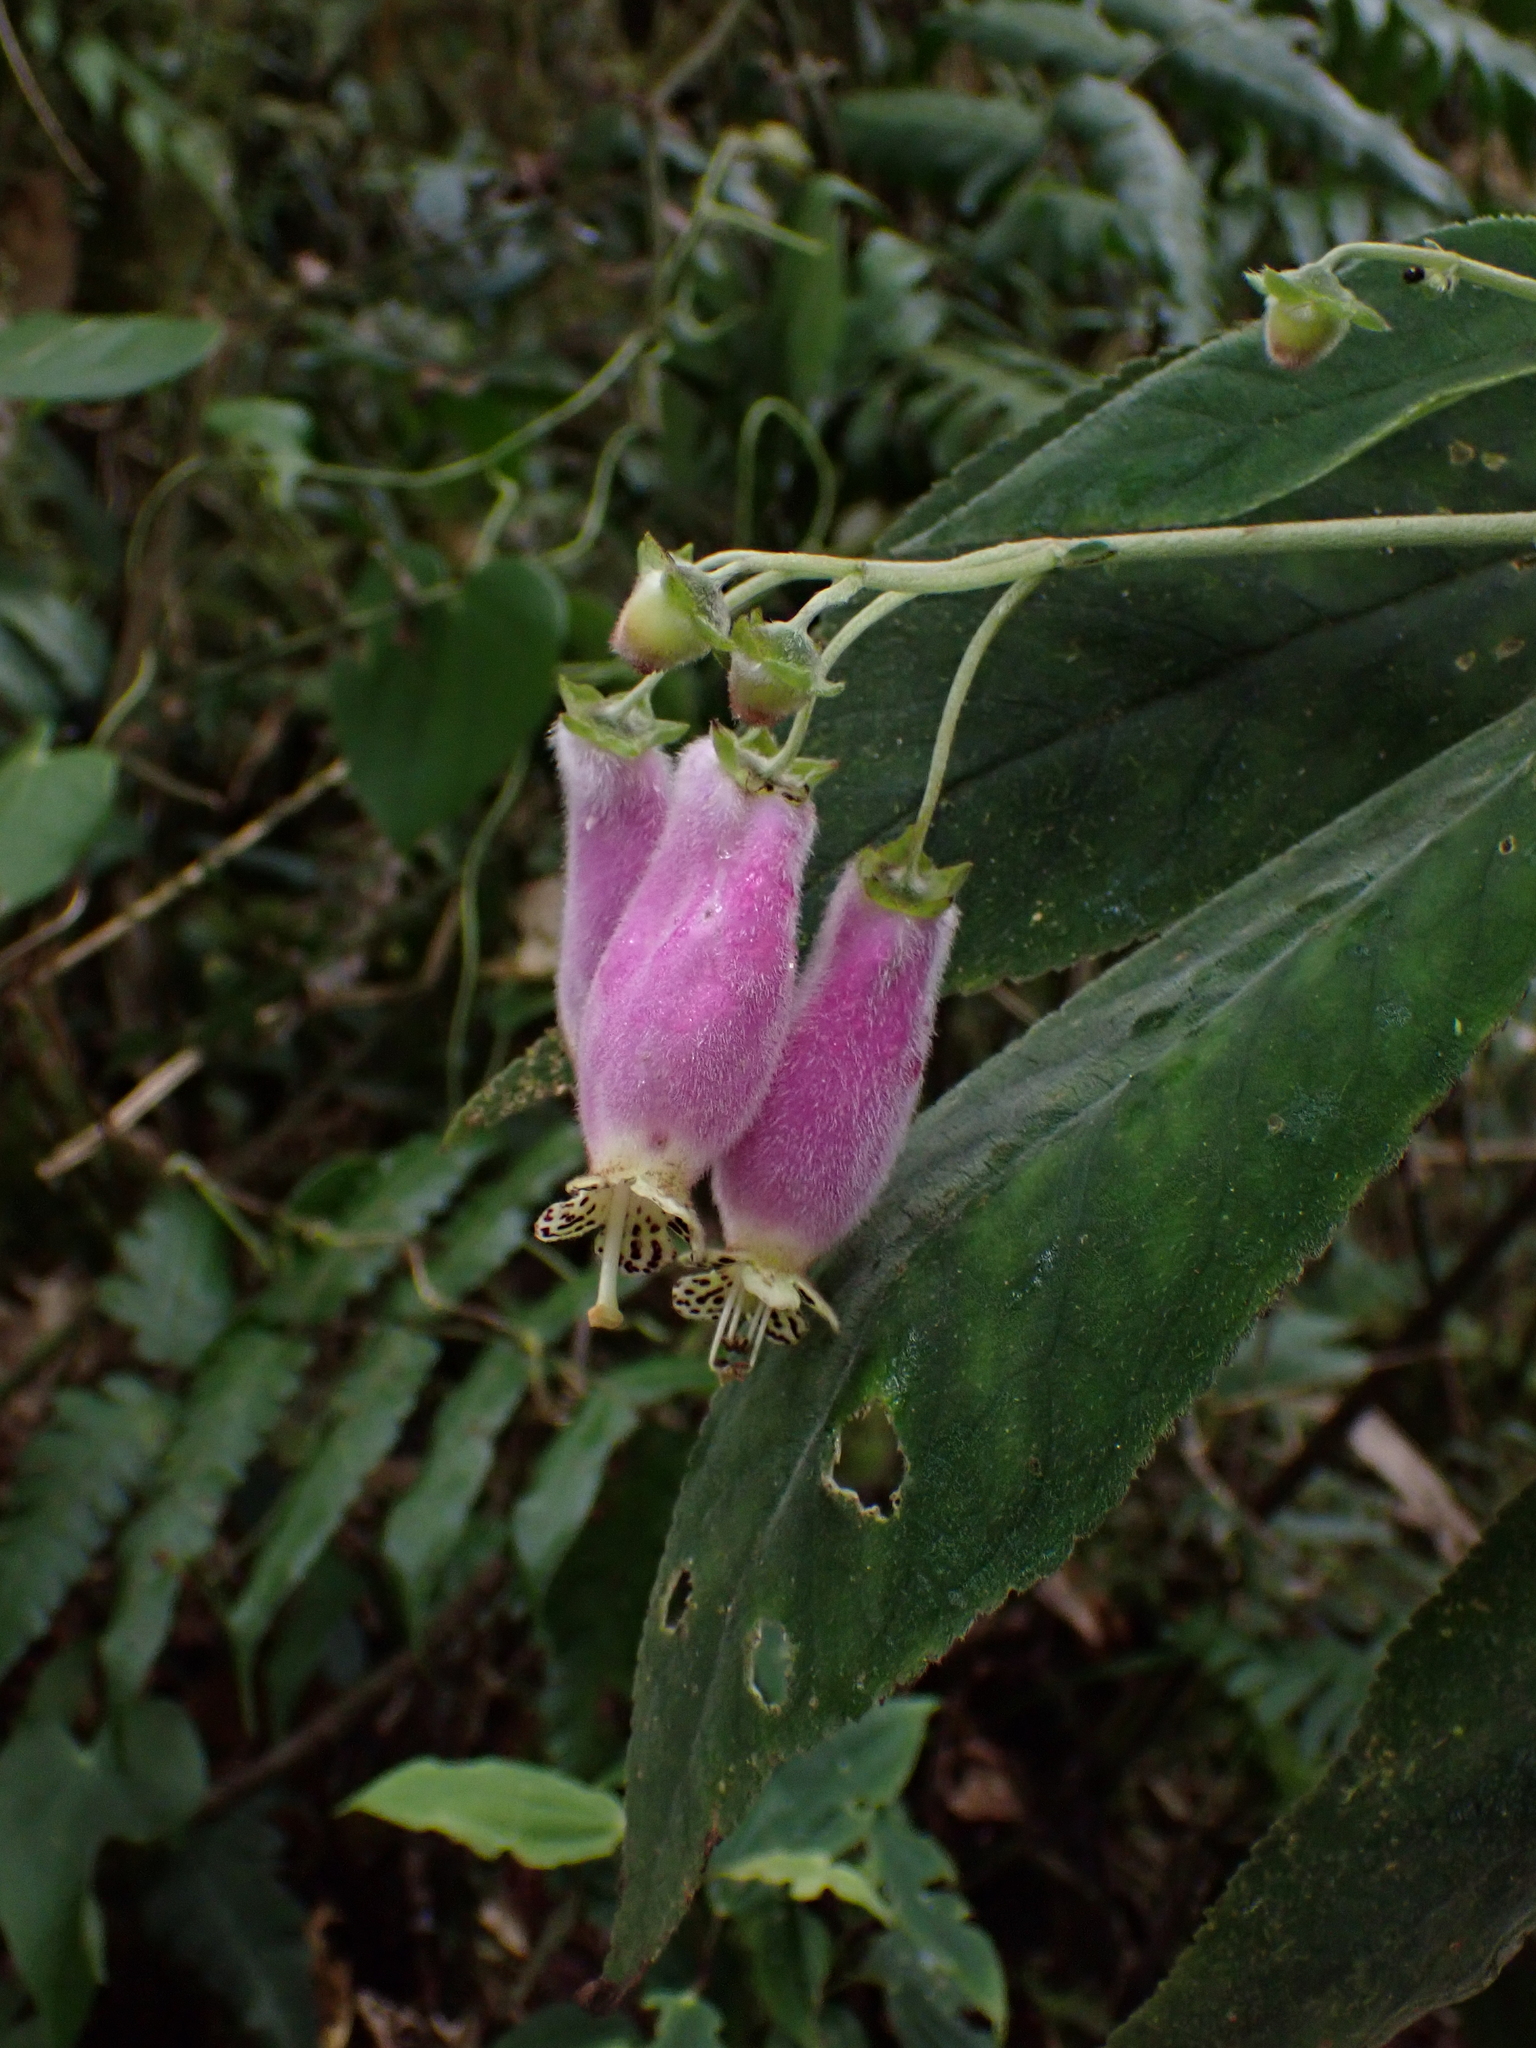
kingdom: Plantae
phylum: Tracheophyta
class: Magnoliopsida
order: Lamiales
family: Gesneriaceae
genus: Kohleria
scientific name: Kohleria affinis
